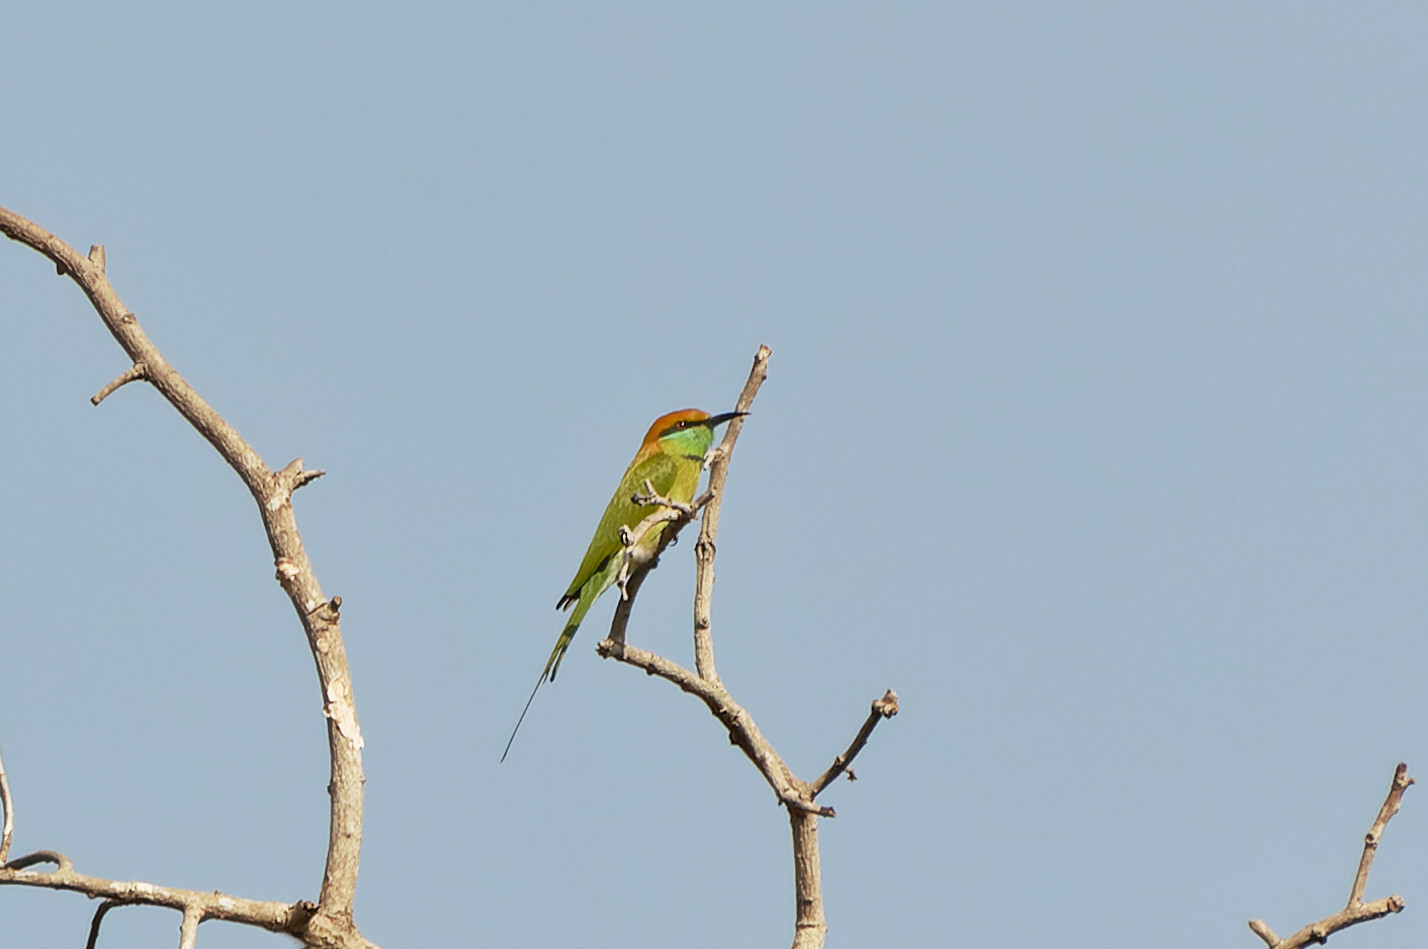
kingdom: Animalia
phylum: Chordata
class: Aves
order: Coraciiformes
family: Meropidae
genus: Merops
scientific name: Merops orientalis
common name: Green bee-eater
